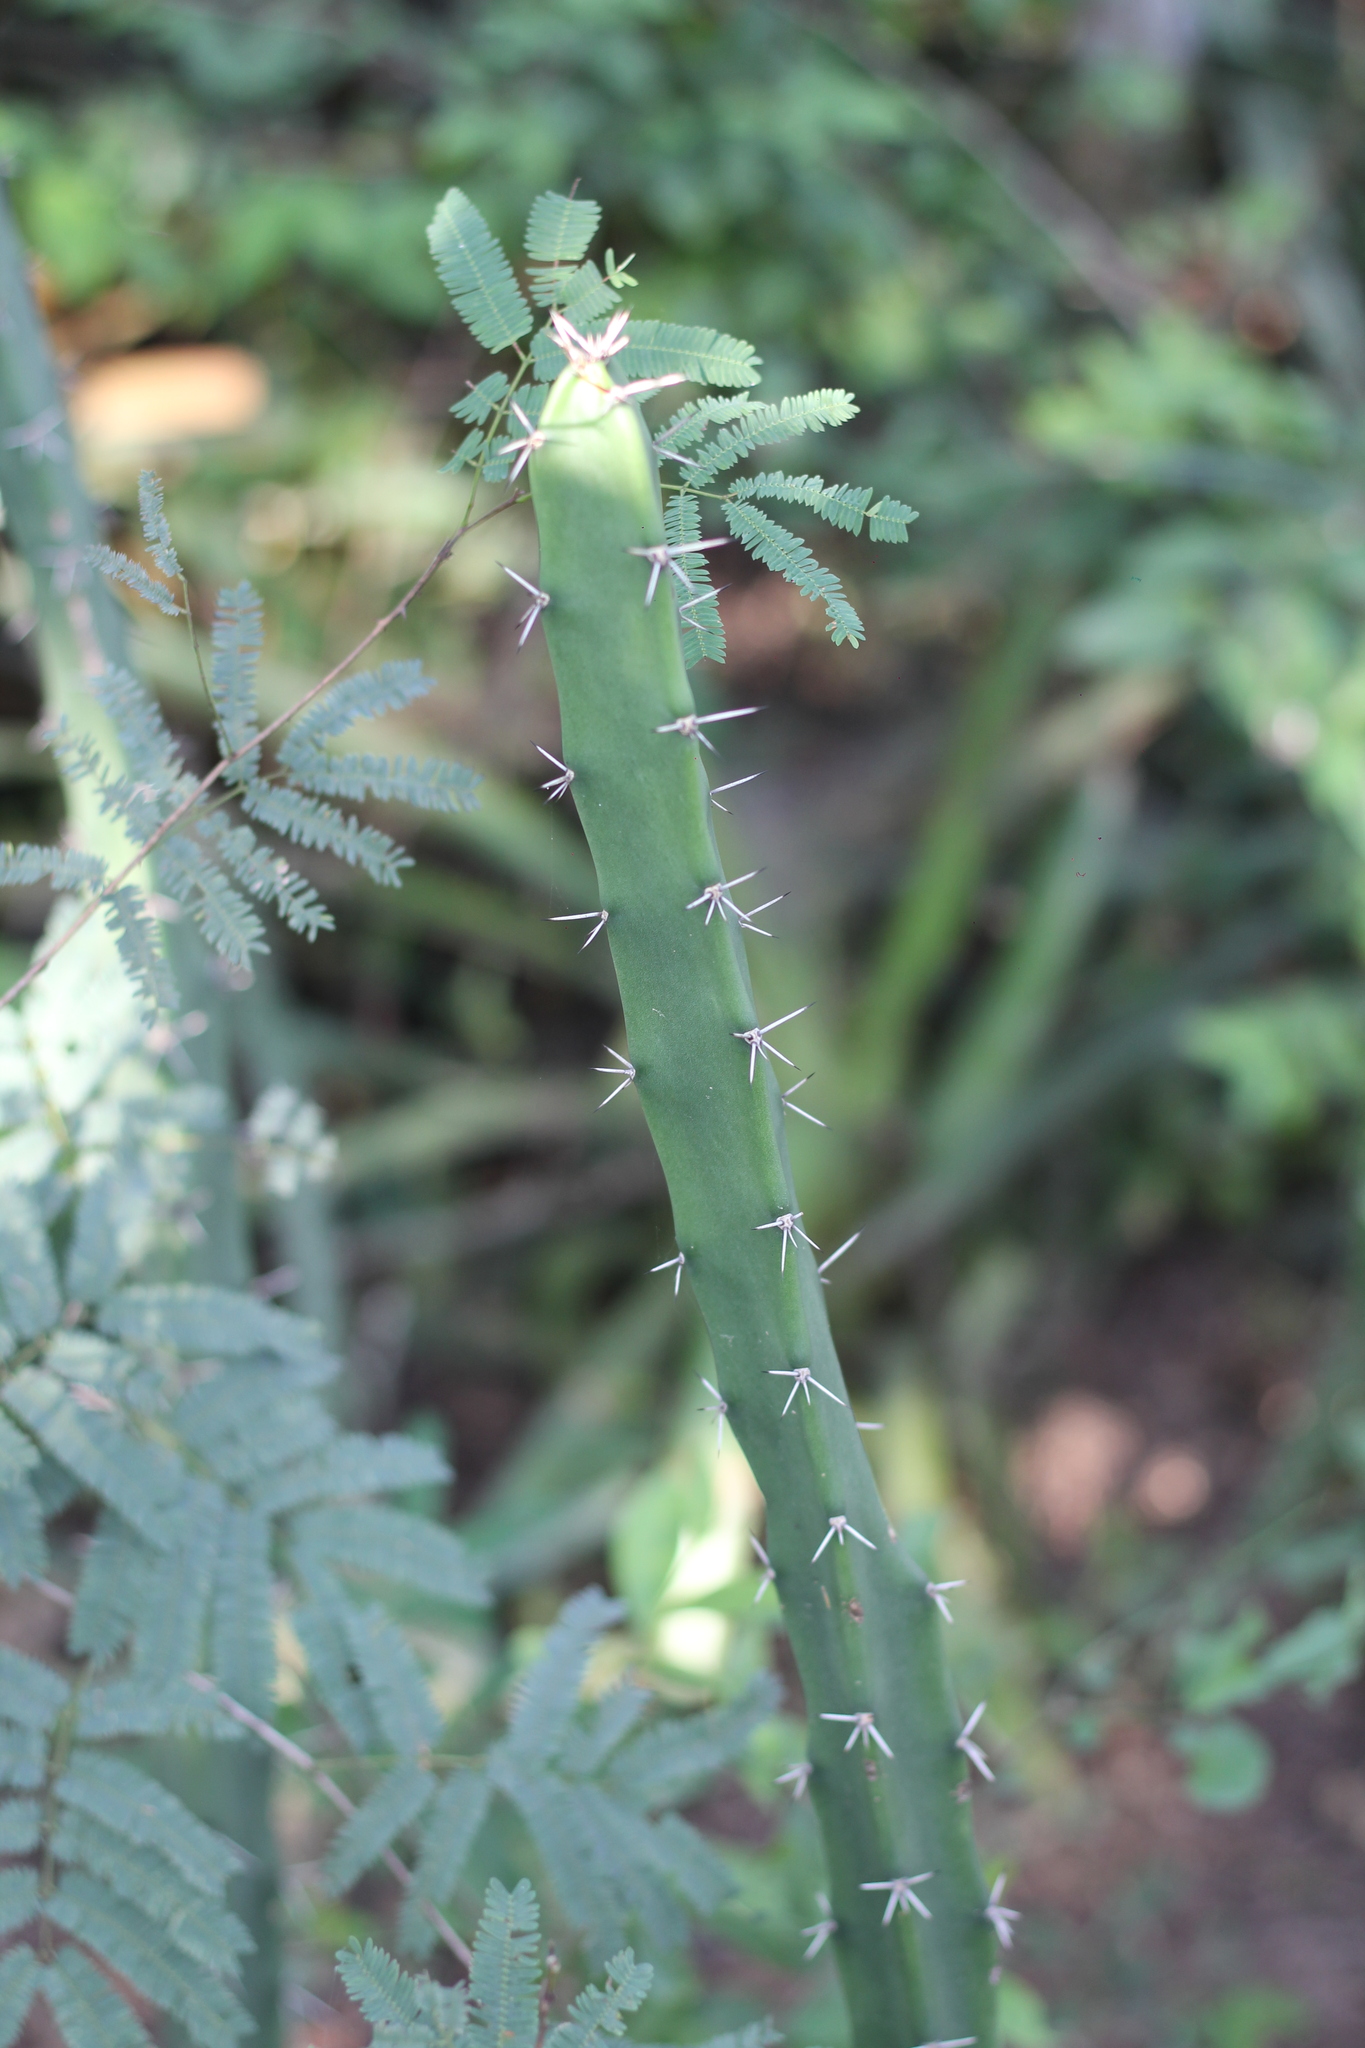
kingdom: Plantae
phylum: Tracheophyta
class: Magnoliopsida
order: Caryophyllales
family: Cactaceae
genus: Harrisia
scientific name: Harrisia bonplandii
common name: Queen of the night cactus
